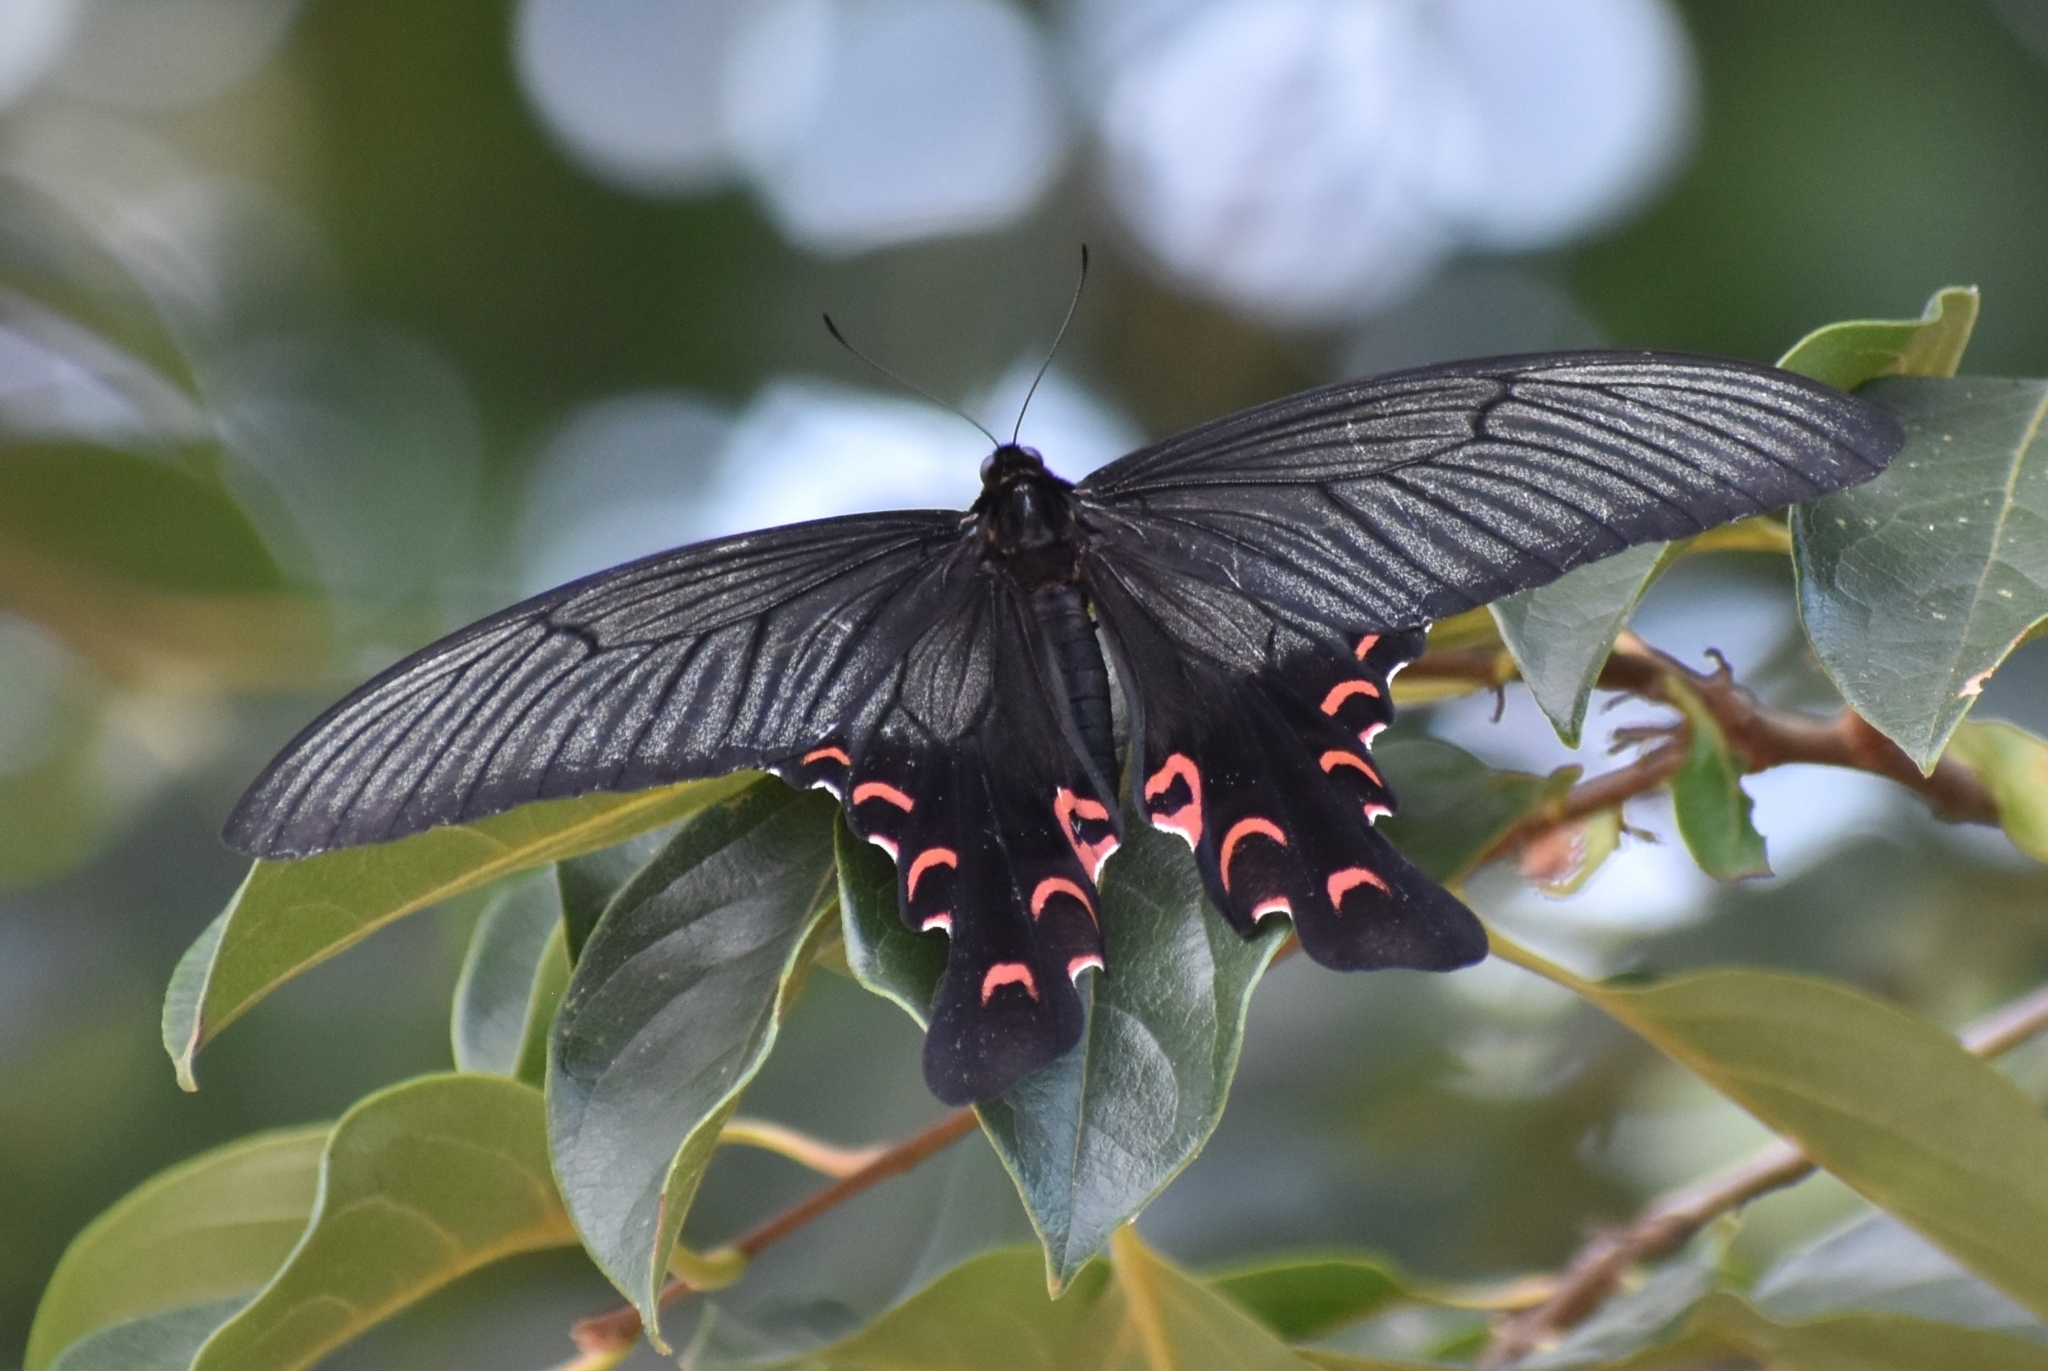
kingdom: Animalia
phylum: Arthropoda
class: Insecta
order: Lepidoptera
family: Papilionidae
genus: Papilio
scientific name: Papilio elwesi
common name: Elwes' swallowtail
